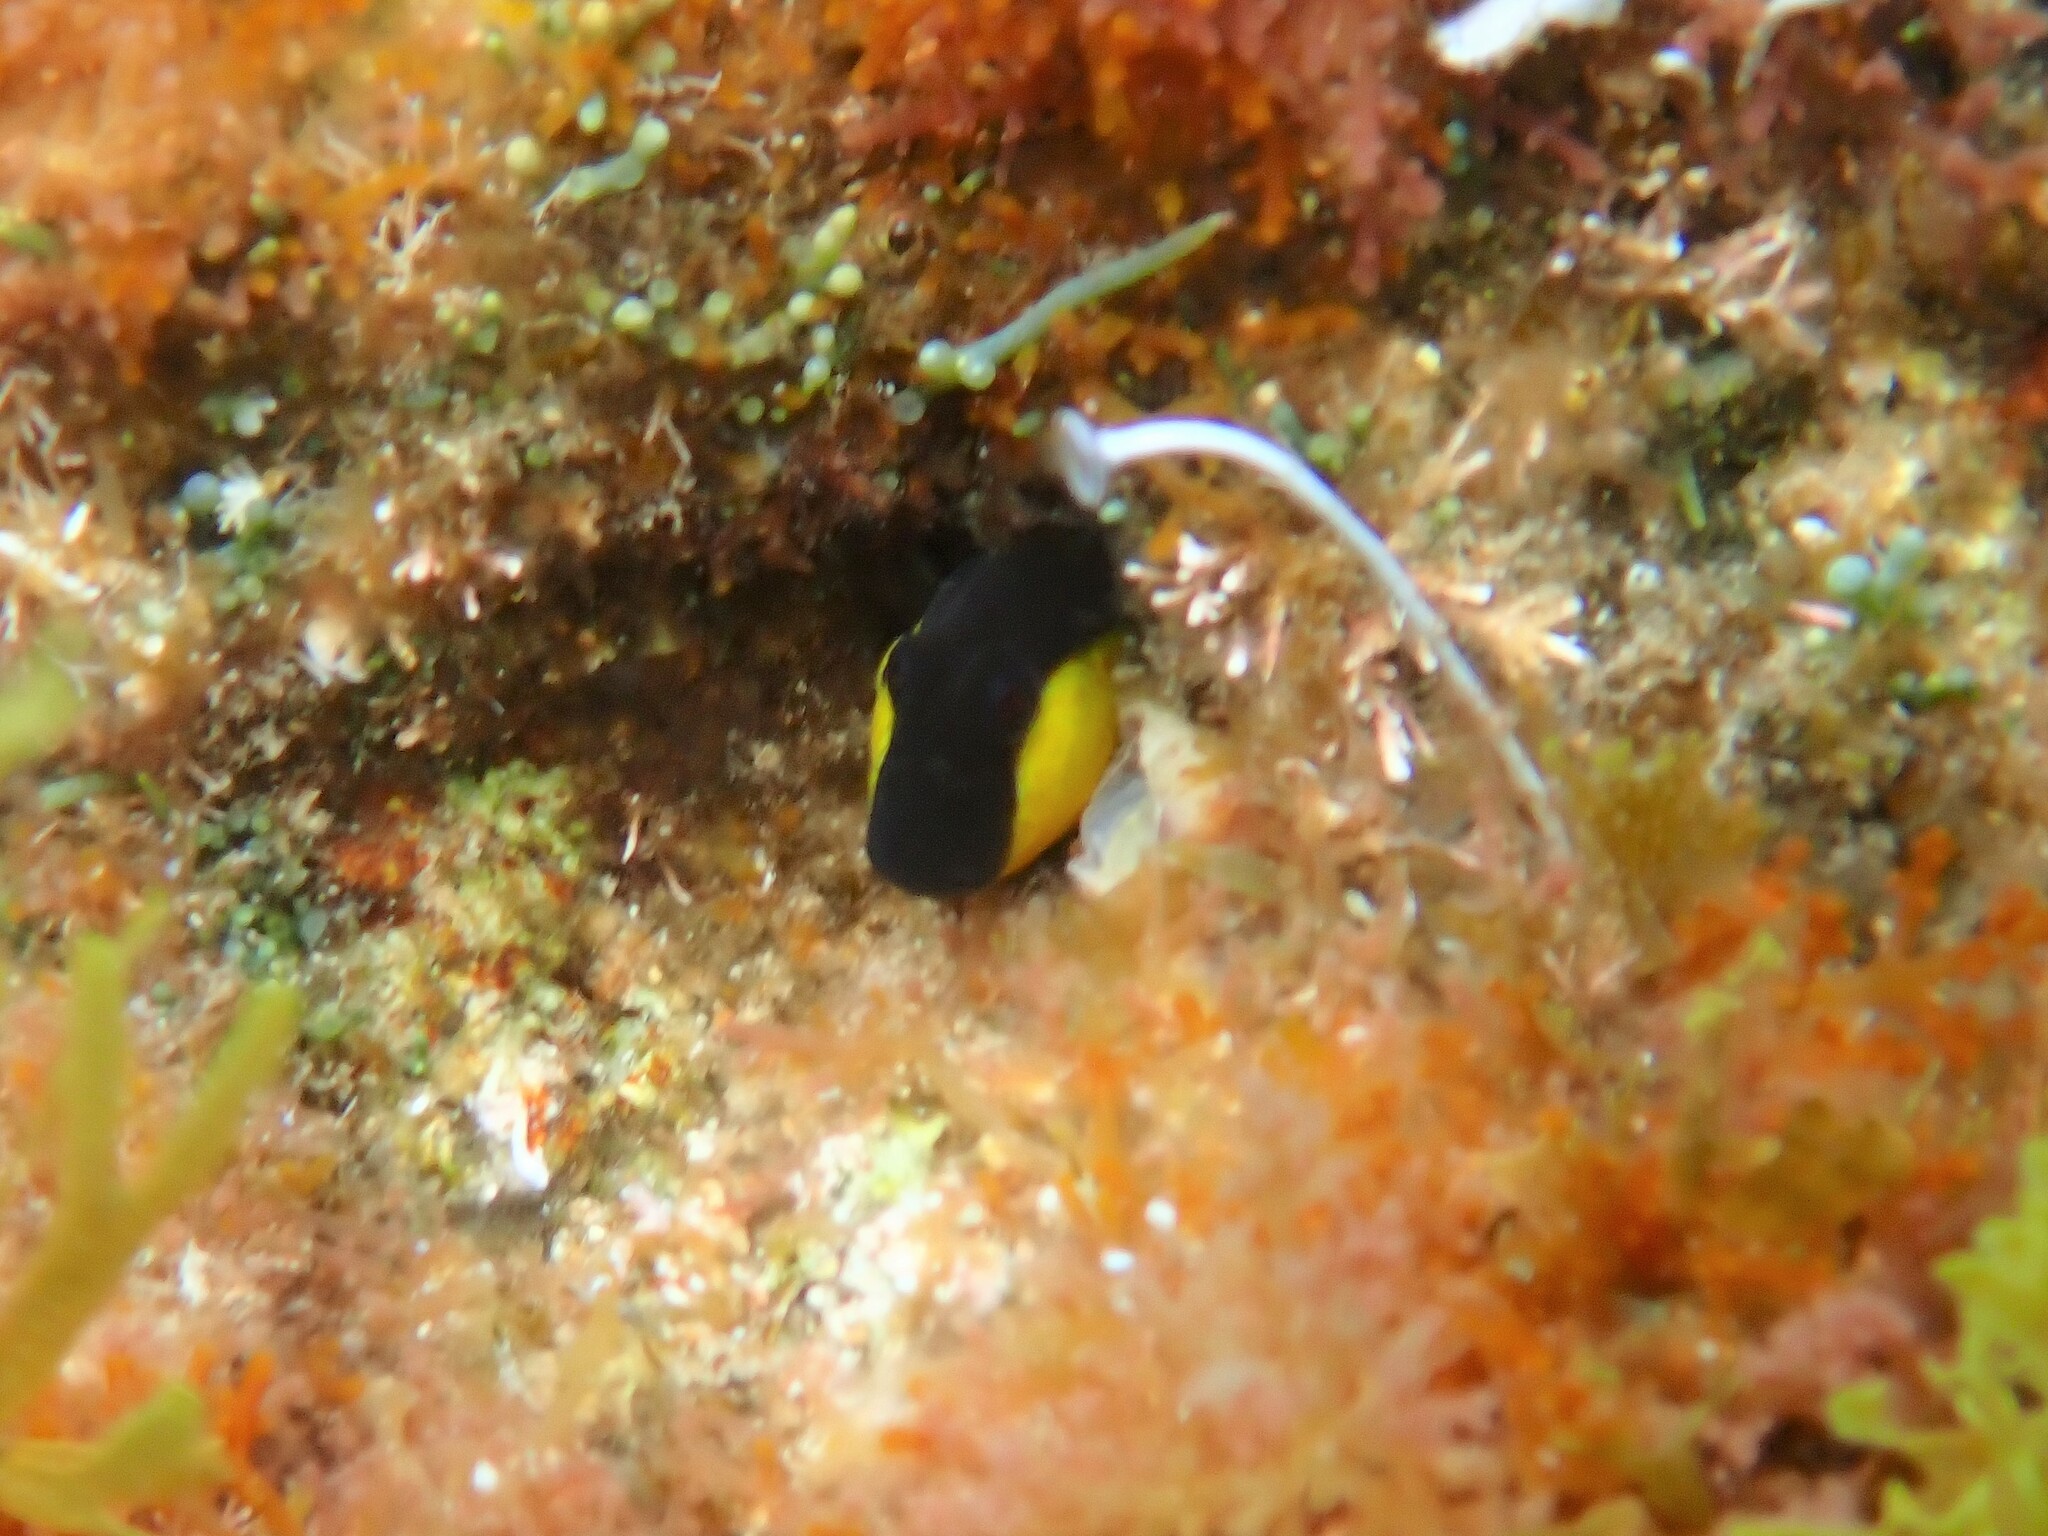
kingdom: Animalia
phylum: Chordata
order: Perciformes
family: Blenniidae
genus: Microlipophrys
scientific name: Microlipophrys canevae
